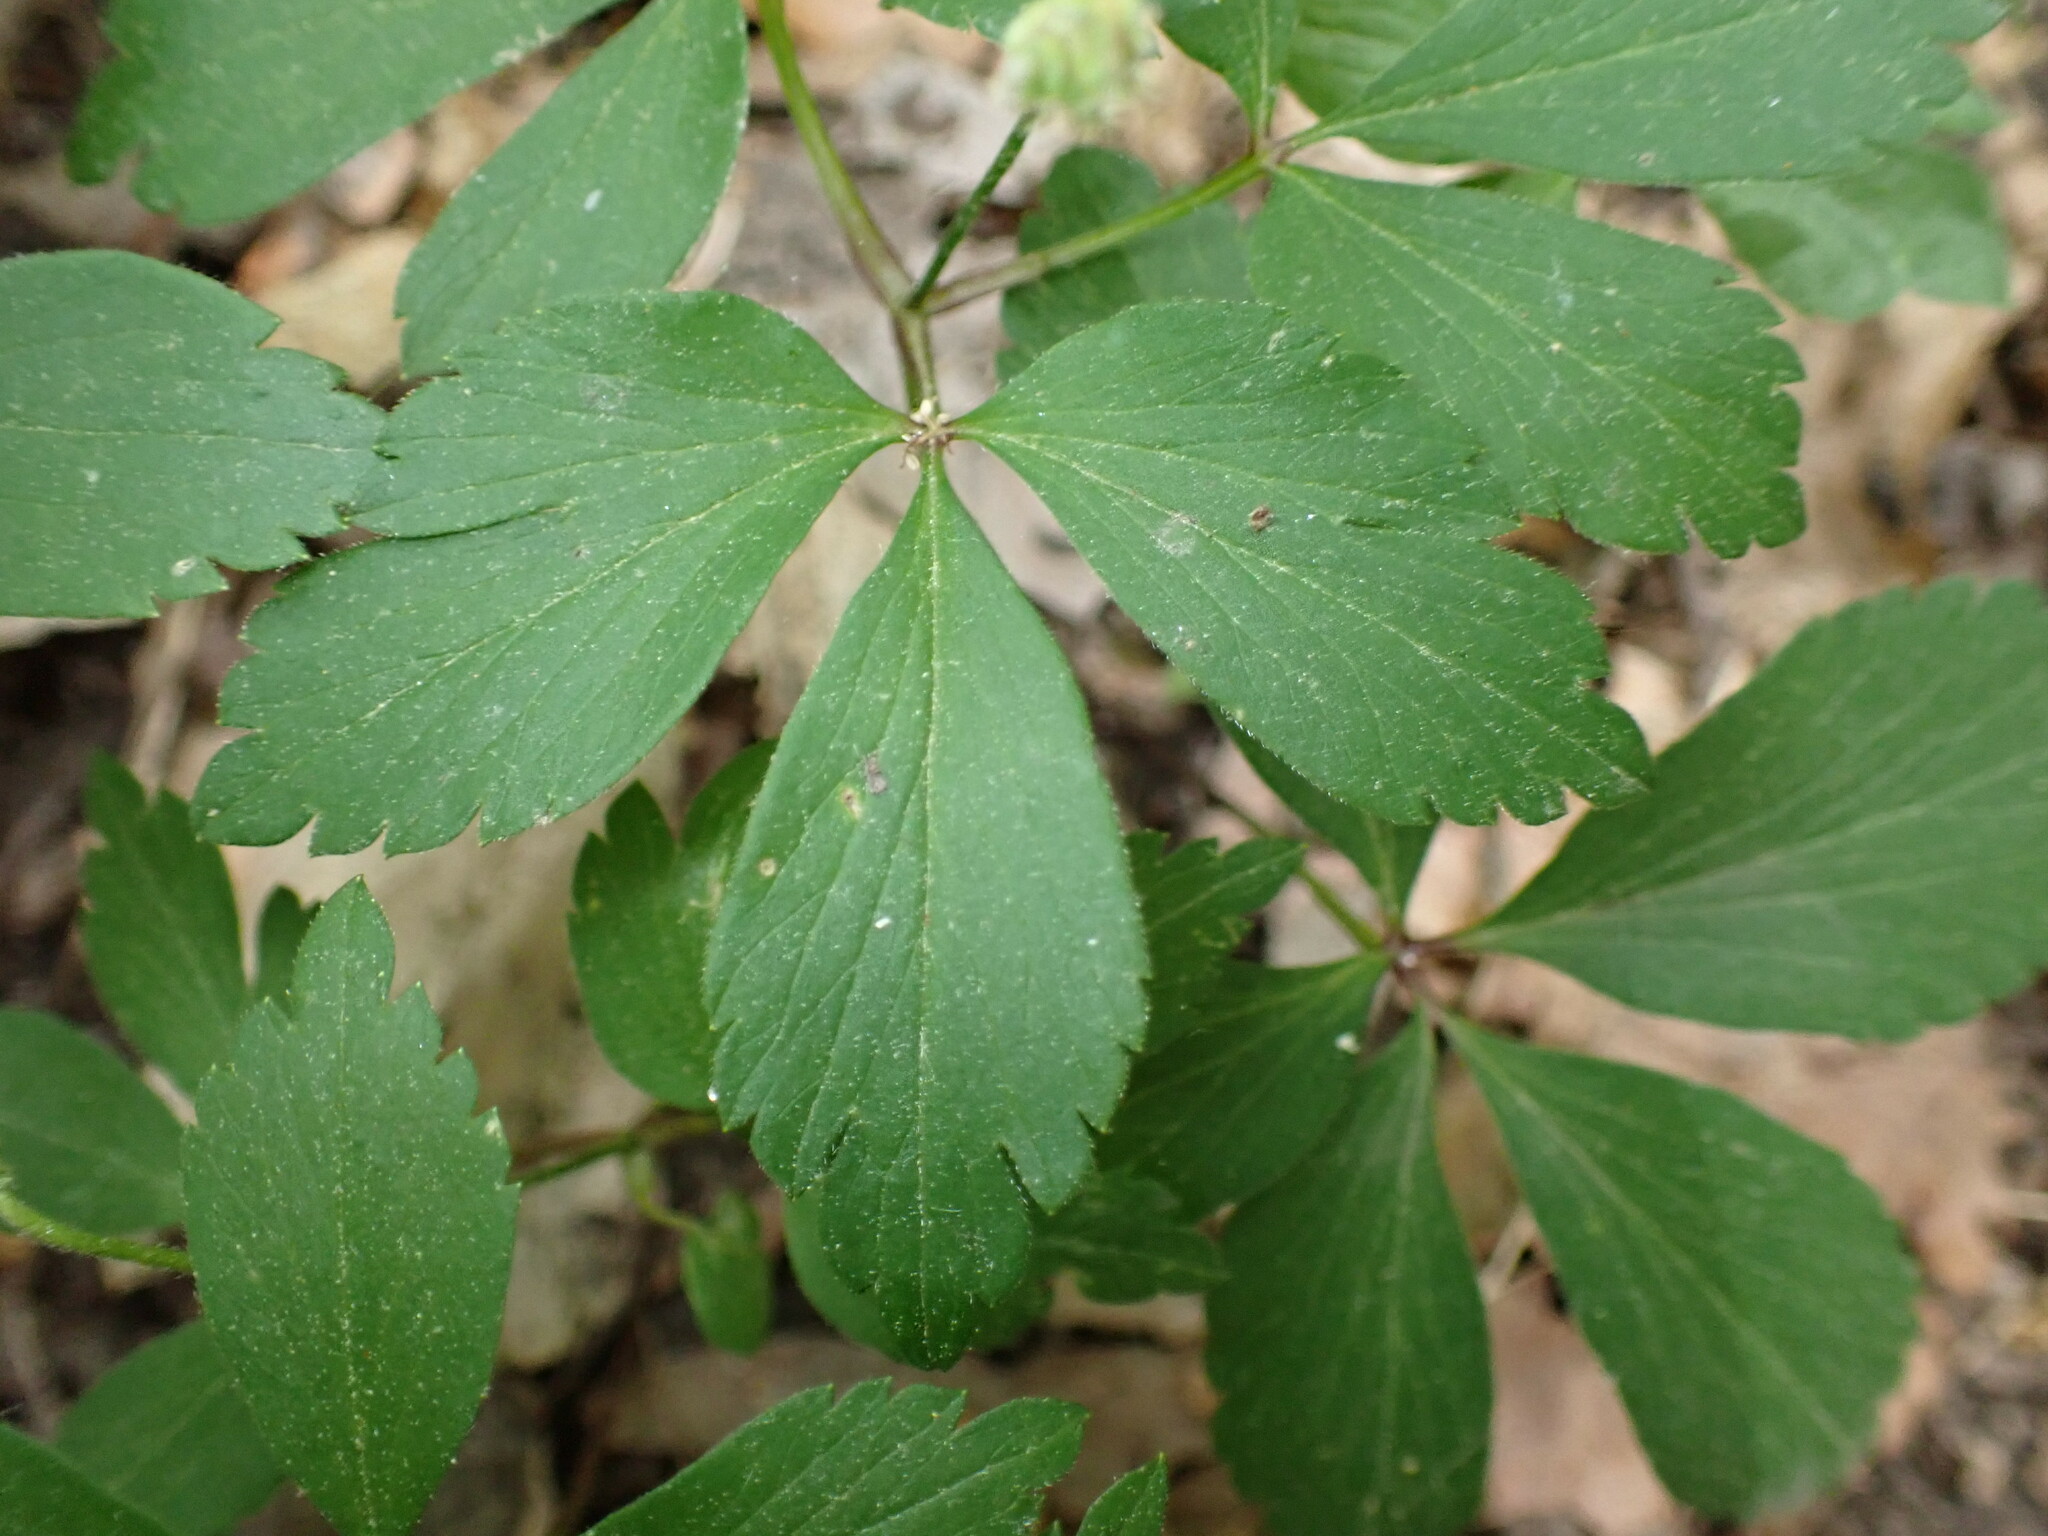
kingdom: Plantae
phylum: Tracheophyta
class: Magnoliopsida
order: Ranunculales
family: Ranunculaceae
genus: Anemone
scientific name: Anemone quinquefolia
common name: Wood anemone
